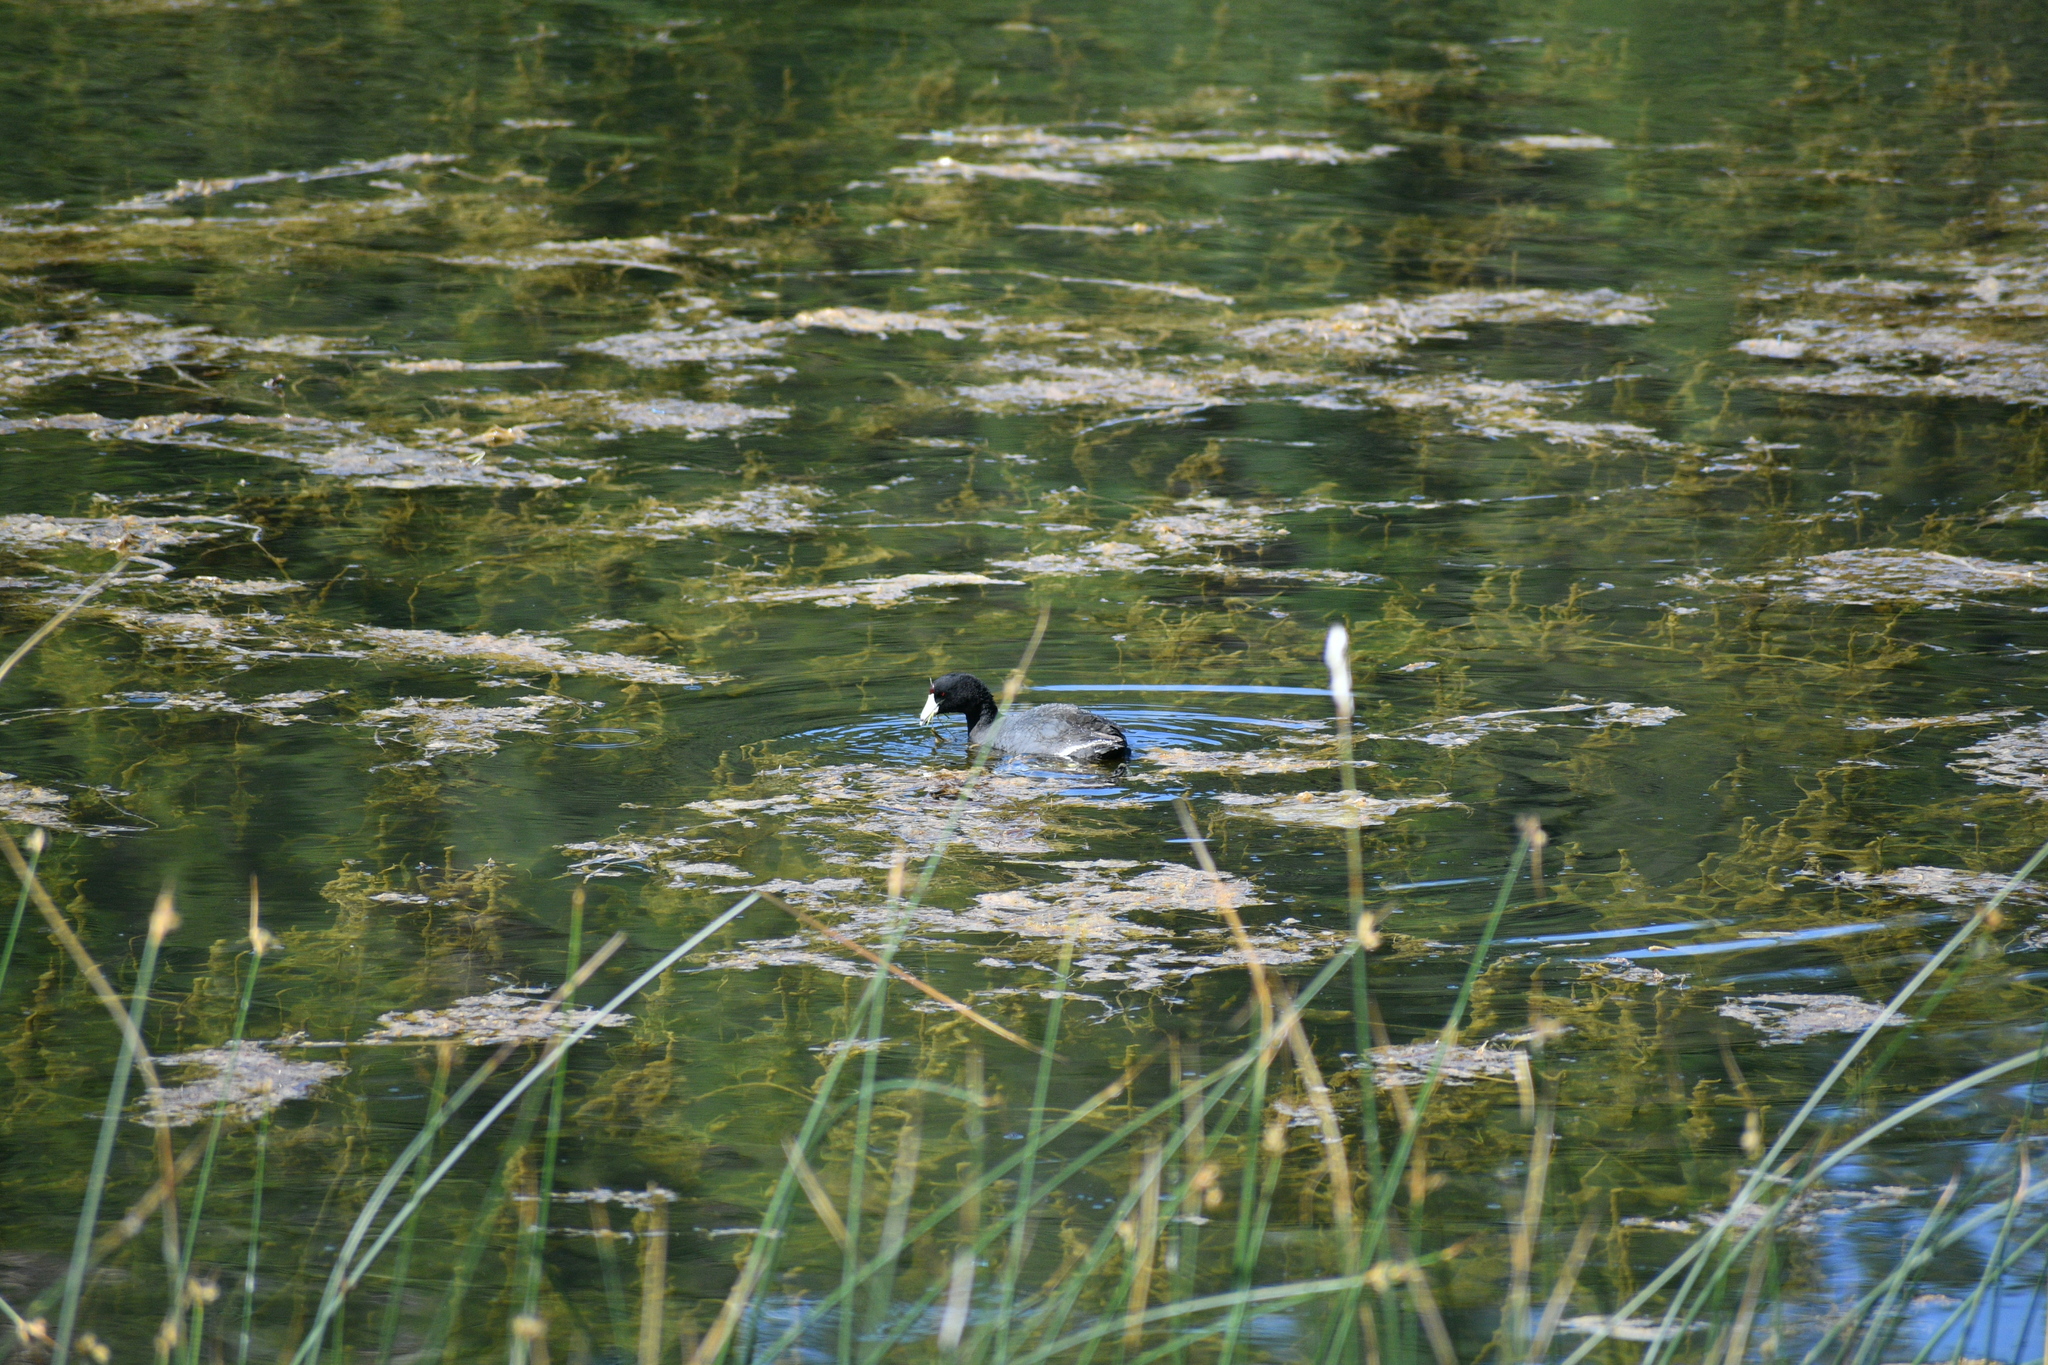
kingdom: Animalia
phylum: Chordata
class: Aves
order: Gruiformes
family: Rallidae
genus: Fulica
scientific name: Fulica americana
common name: American coot
